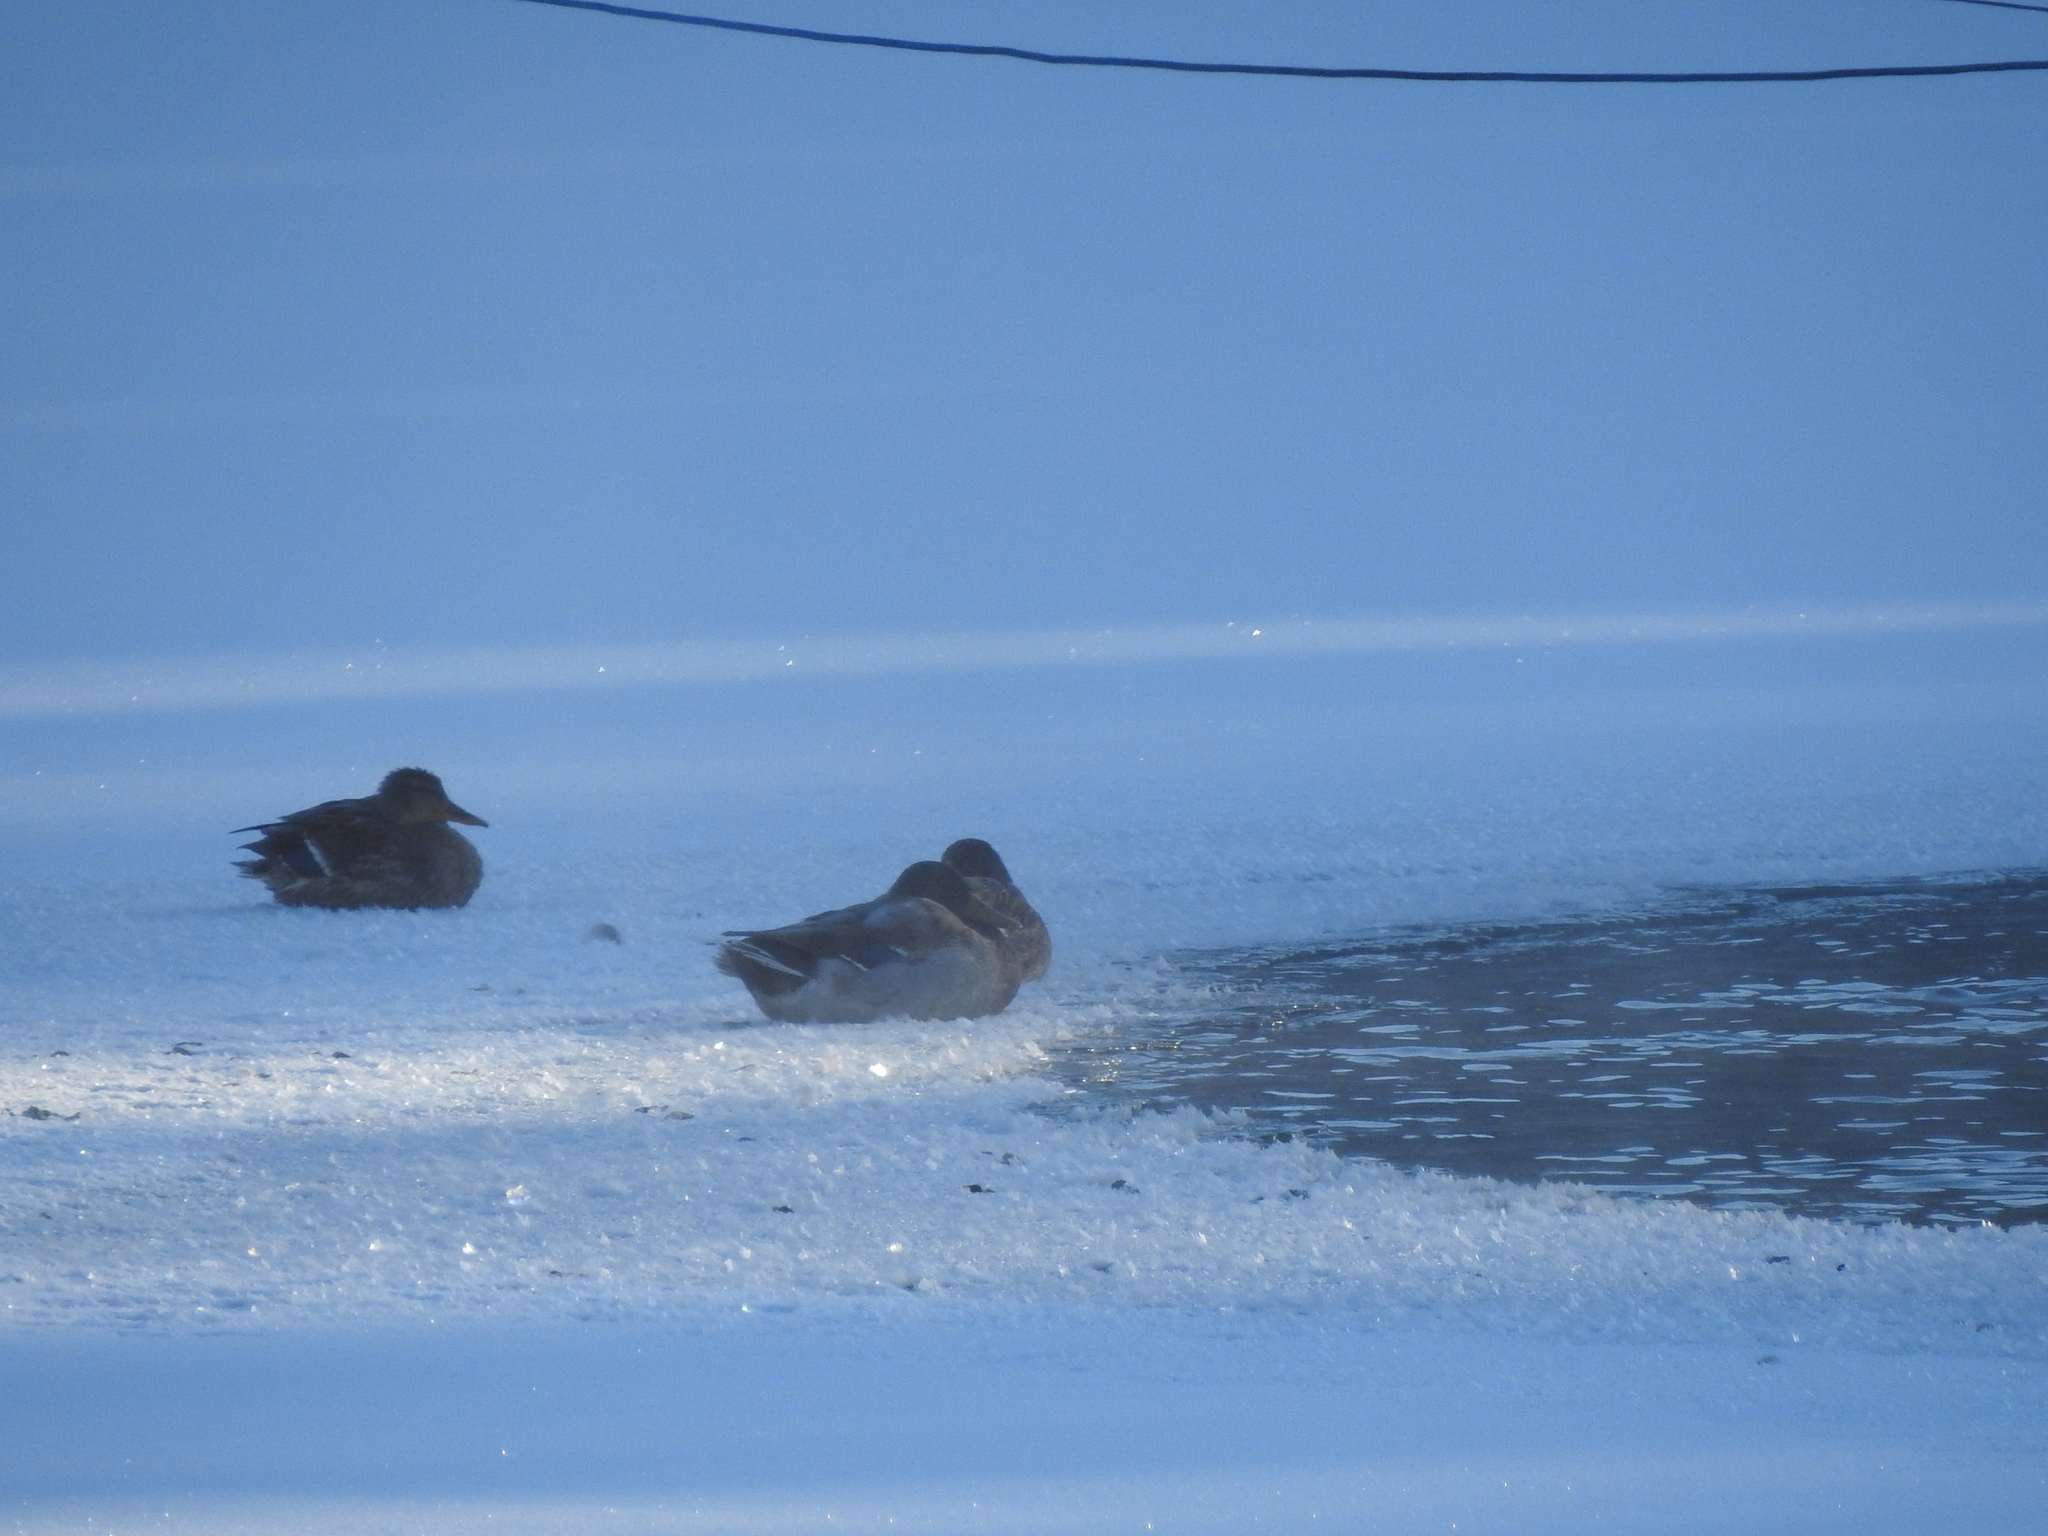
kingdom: Animalia
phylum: Chordata
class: Aves
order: Anseriformes
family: Anatidae
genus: Anas
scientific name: Anas platyrhynchos
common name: Mallard
